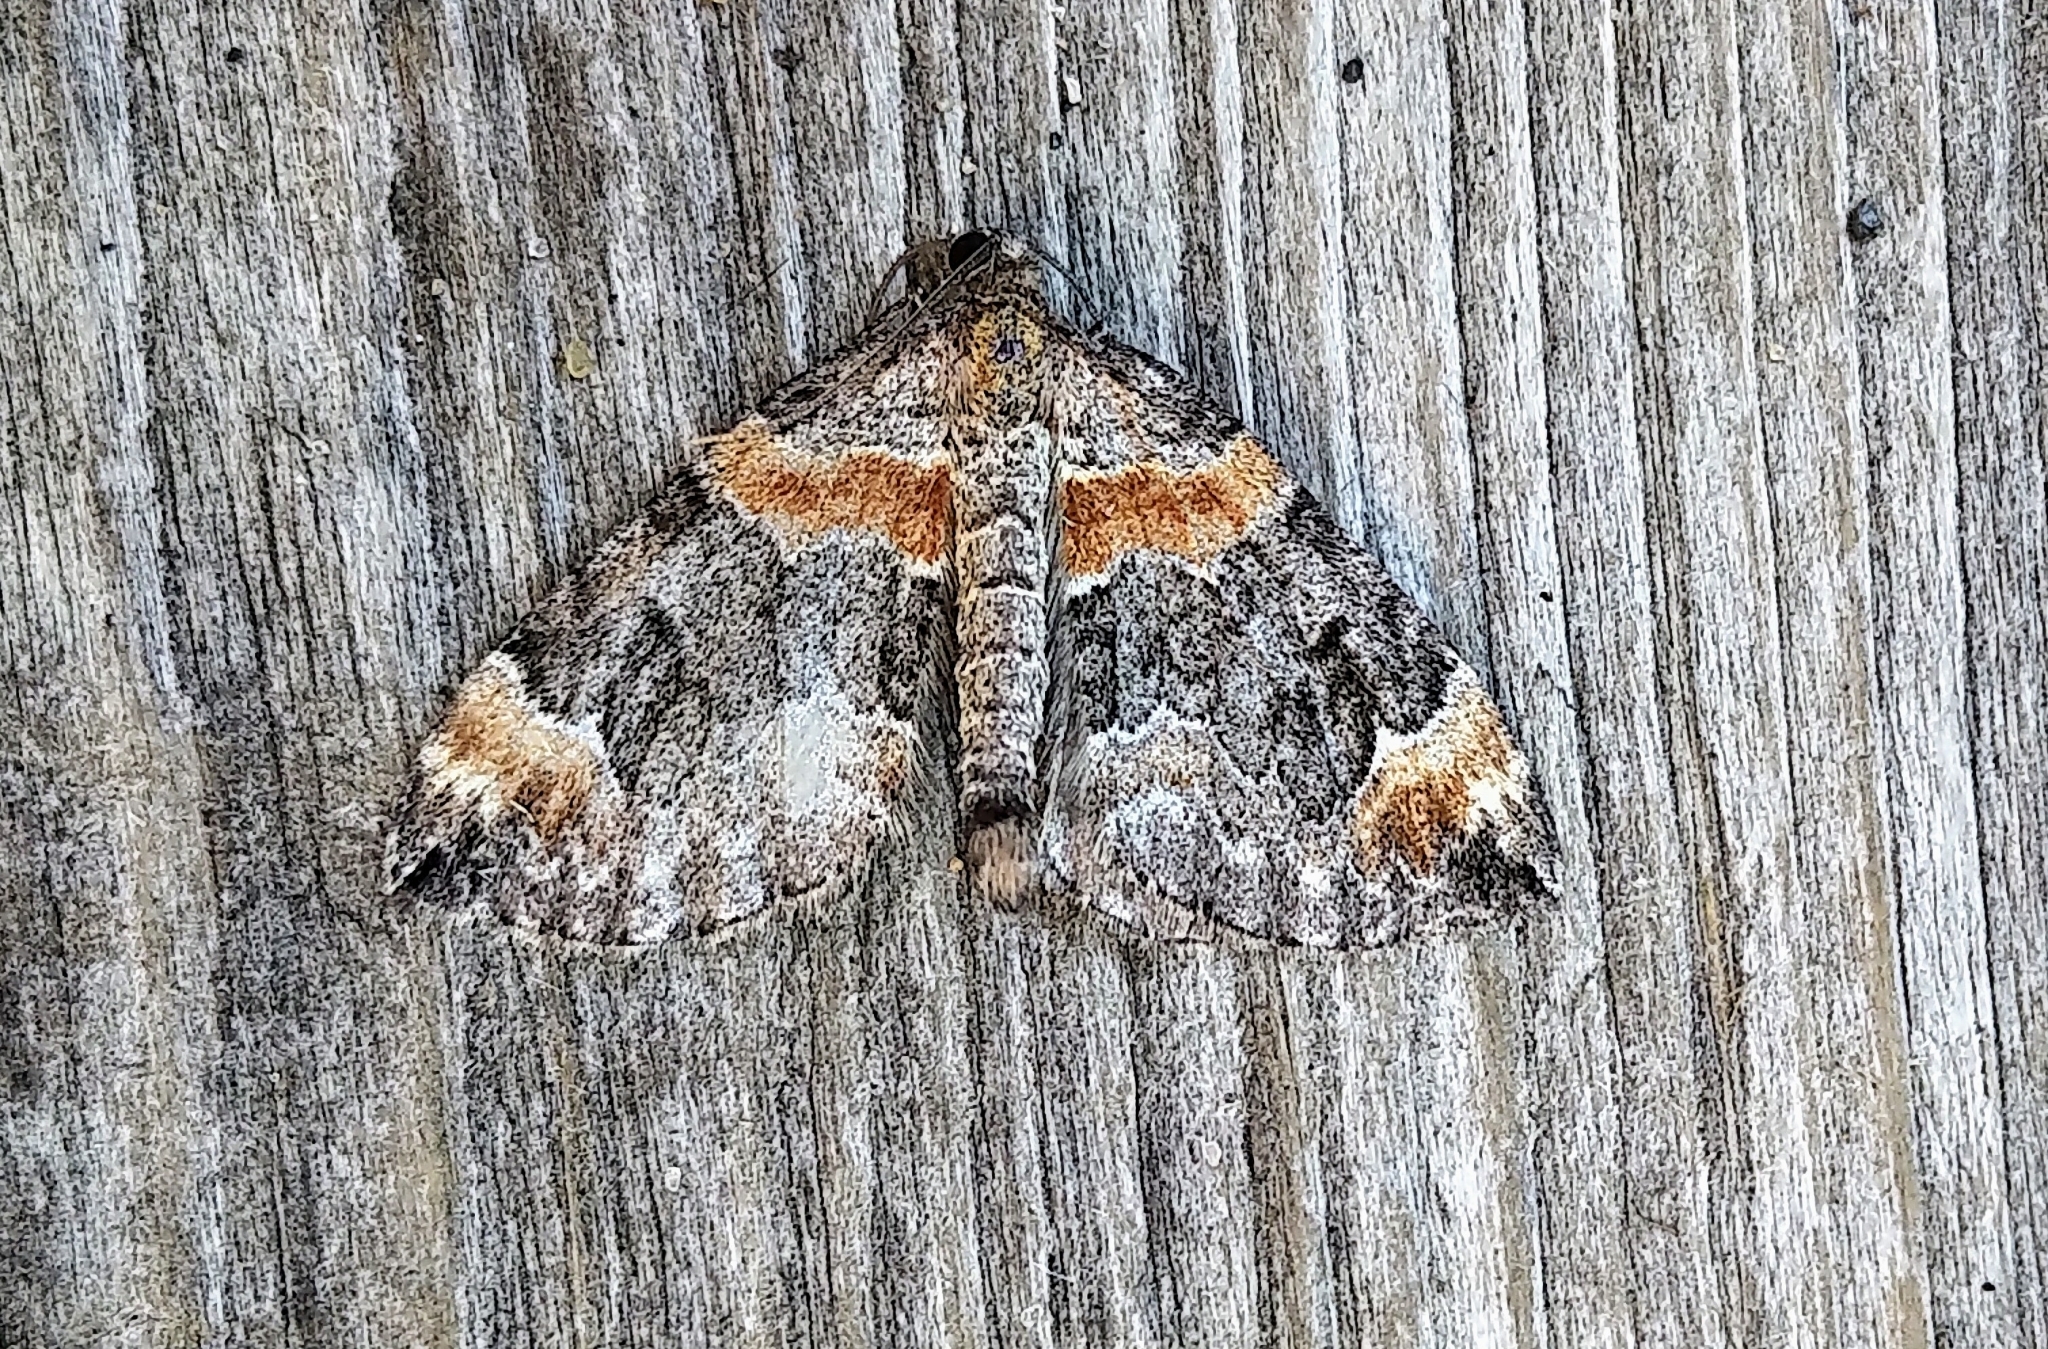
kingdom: Animalia
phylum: Arthropoda
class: Insecta
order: Lepidoptera
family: Geometridae
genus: Dysstroma
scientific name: Dysstroma hersiliata
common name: Orange-barred carpet
